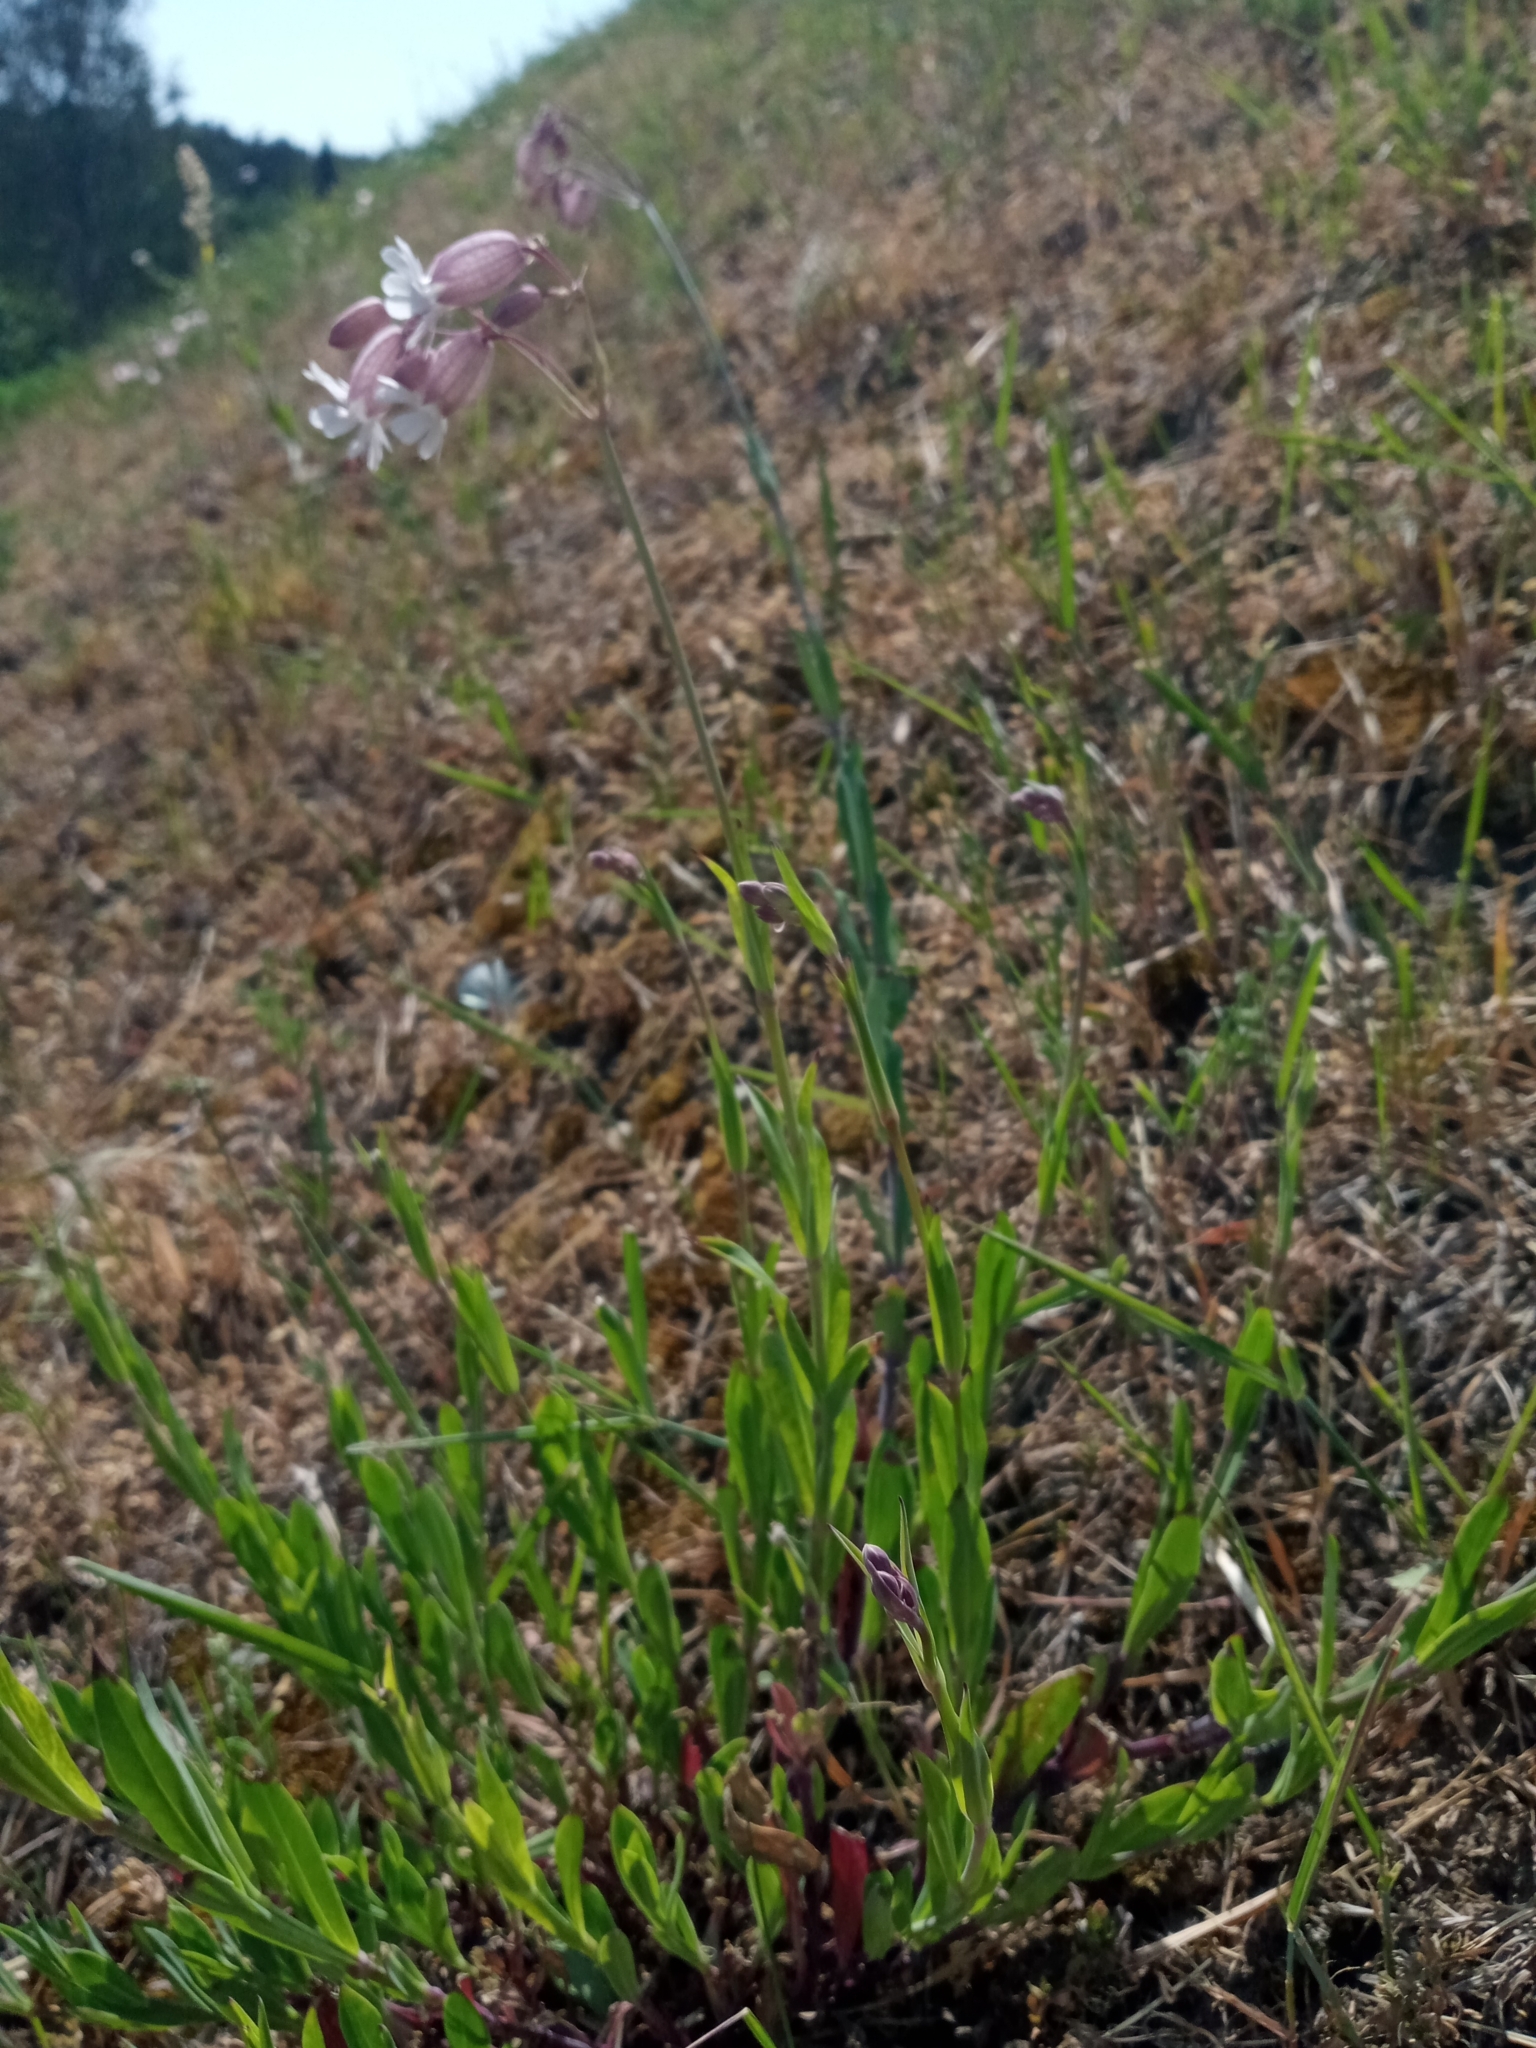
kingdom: Plantae
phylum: Tracheophyta
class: Magnoliopsida
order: Caryophyllales
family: Caryophyllaceae
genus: Silene
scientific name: Silene vulgaris
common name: Bladder campion
